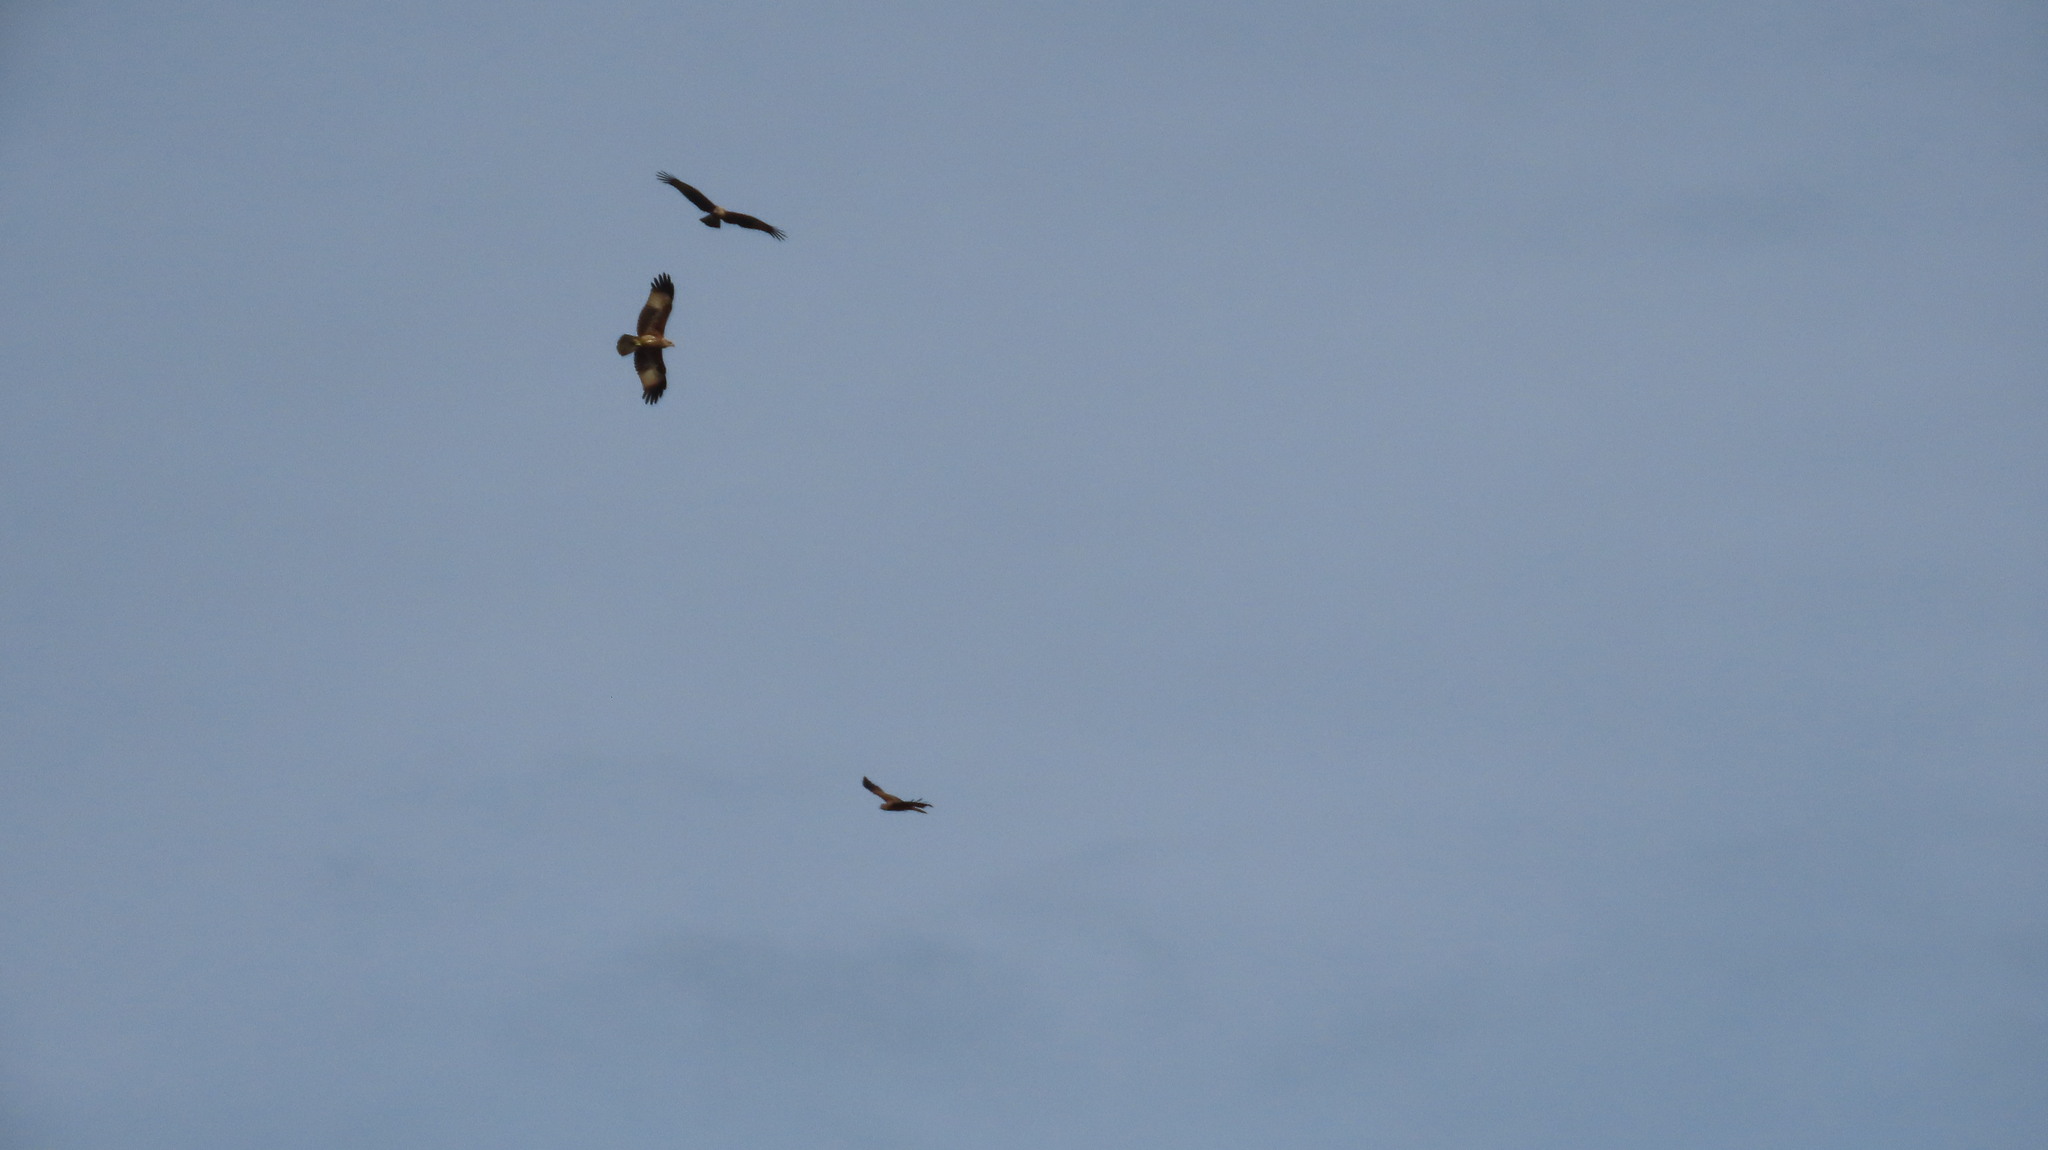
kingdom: Animalia
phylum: Chordata
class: Aves
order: Accipitriformes
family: Accipitridae
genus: Haliastur
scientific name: Haliastur indus
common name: Brahminy kite
